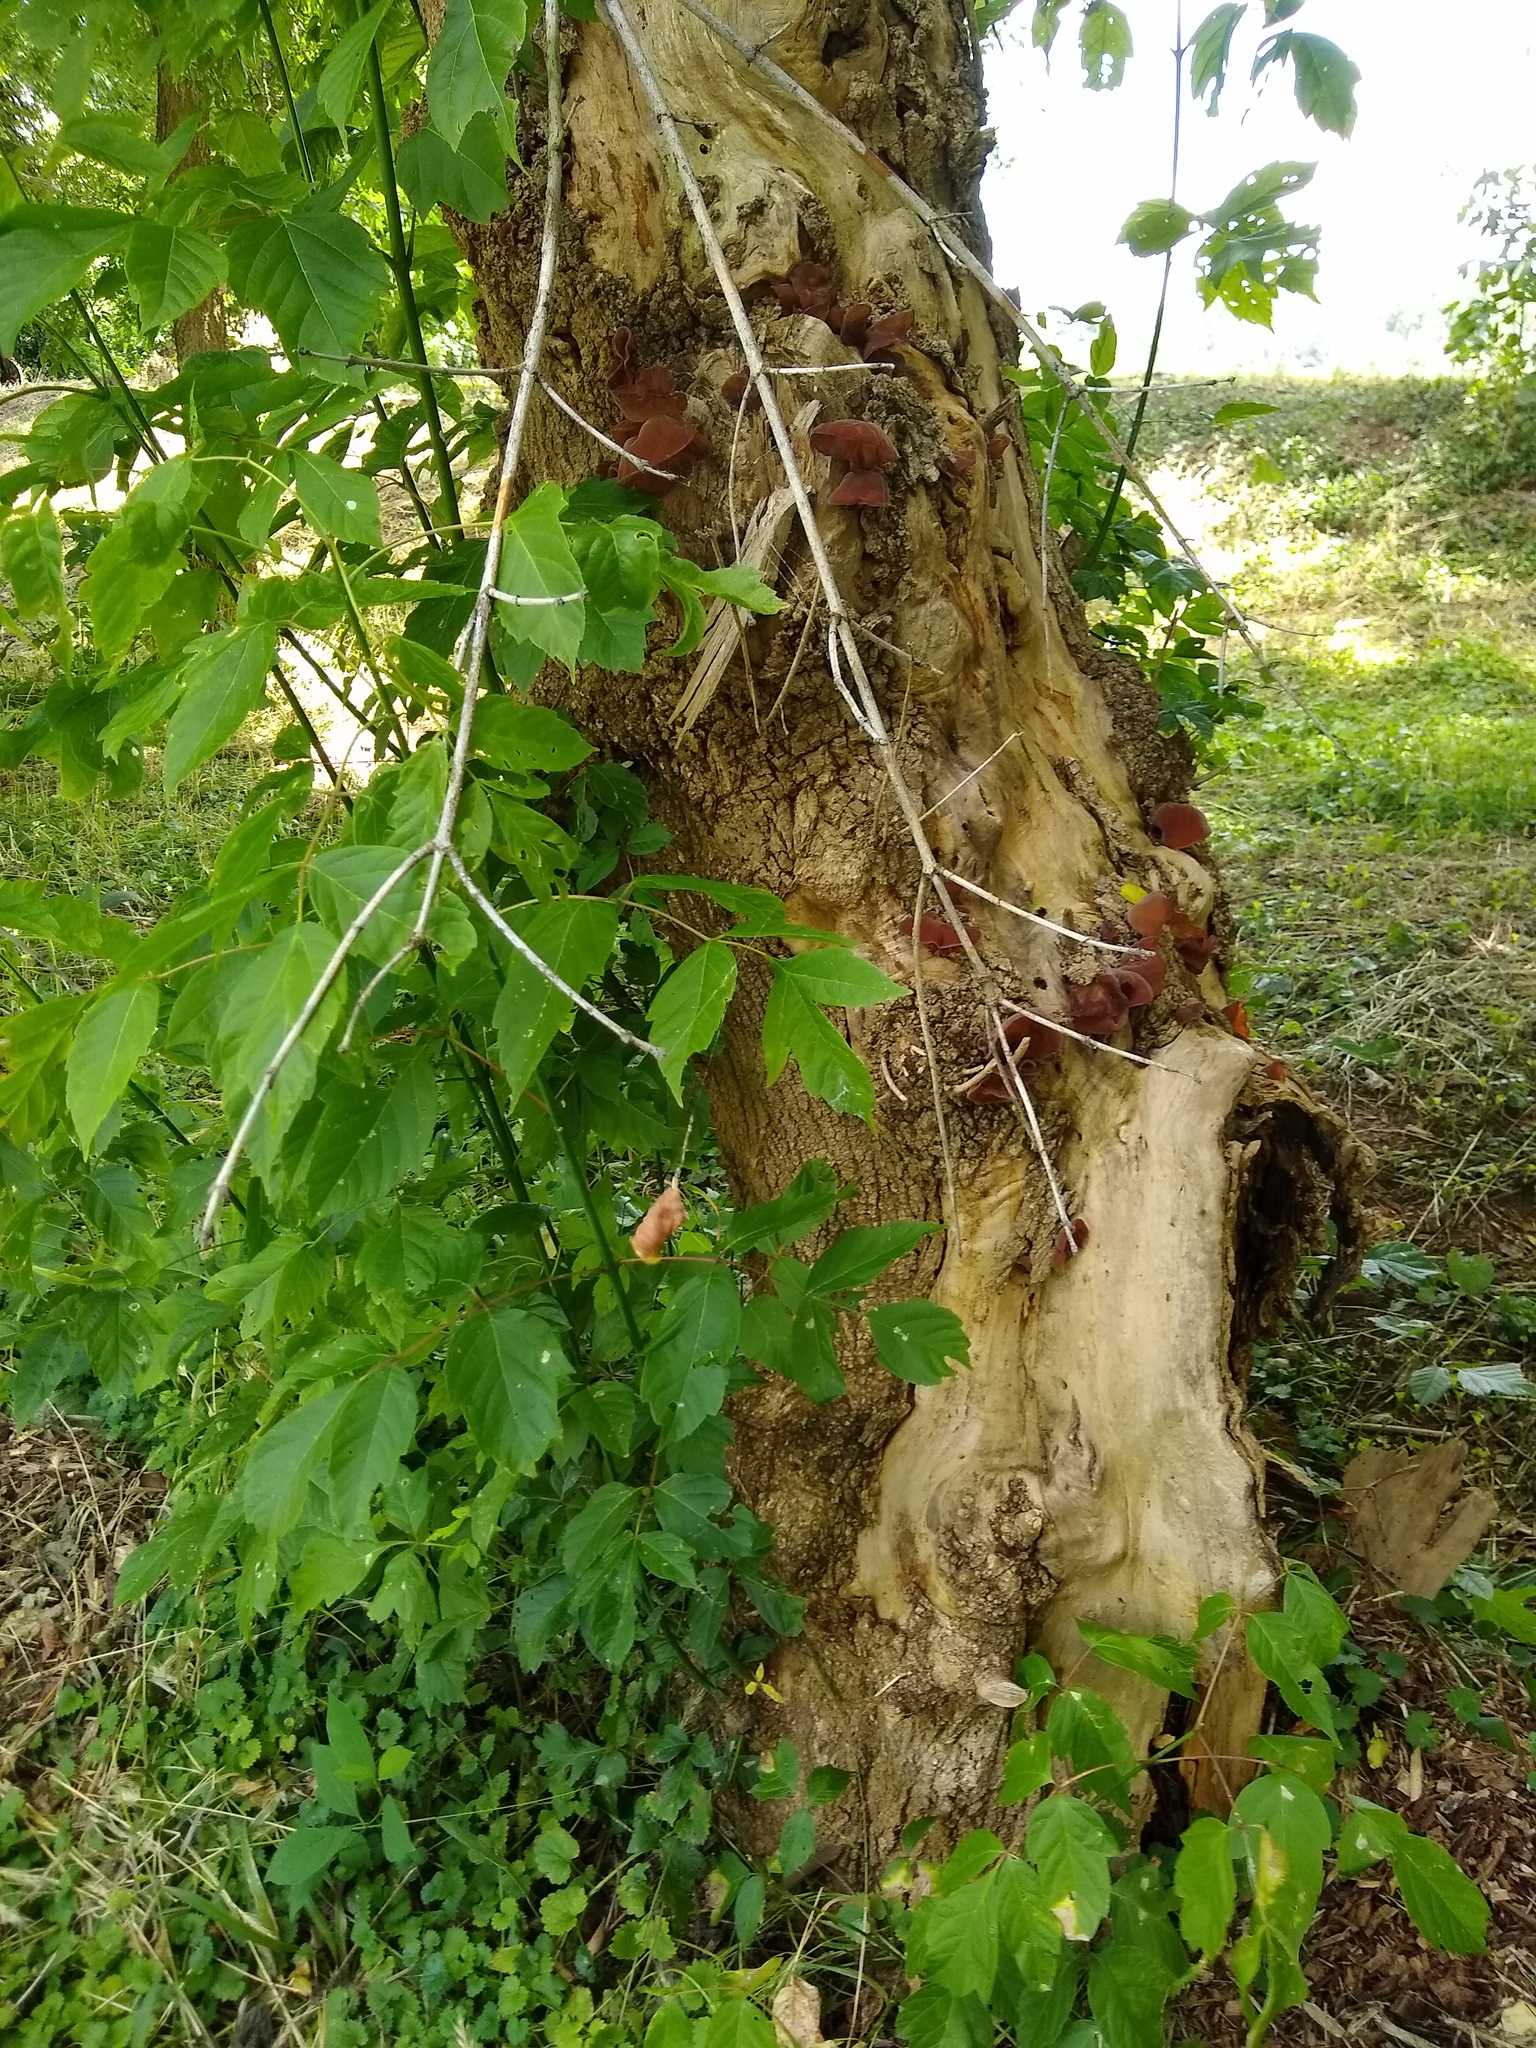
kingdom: Plantae
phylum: Tracheophyta
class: Magnoliopsida
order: Sapindales
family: Sapindaceae
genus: Acer
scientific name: Acer negundo
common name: Ashleaf maple
